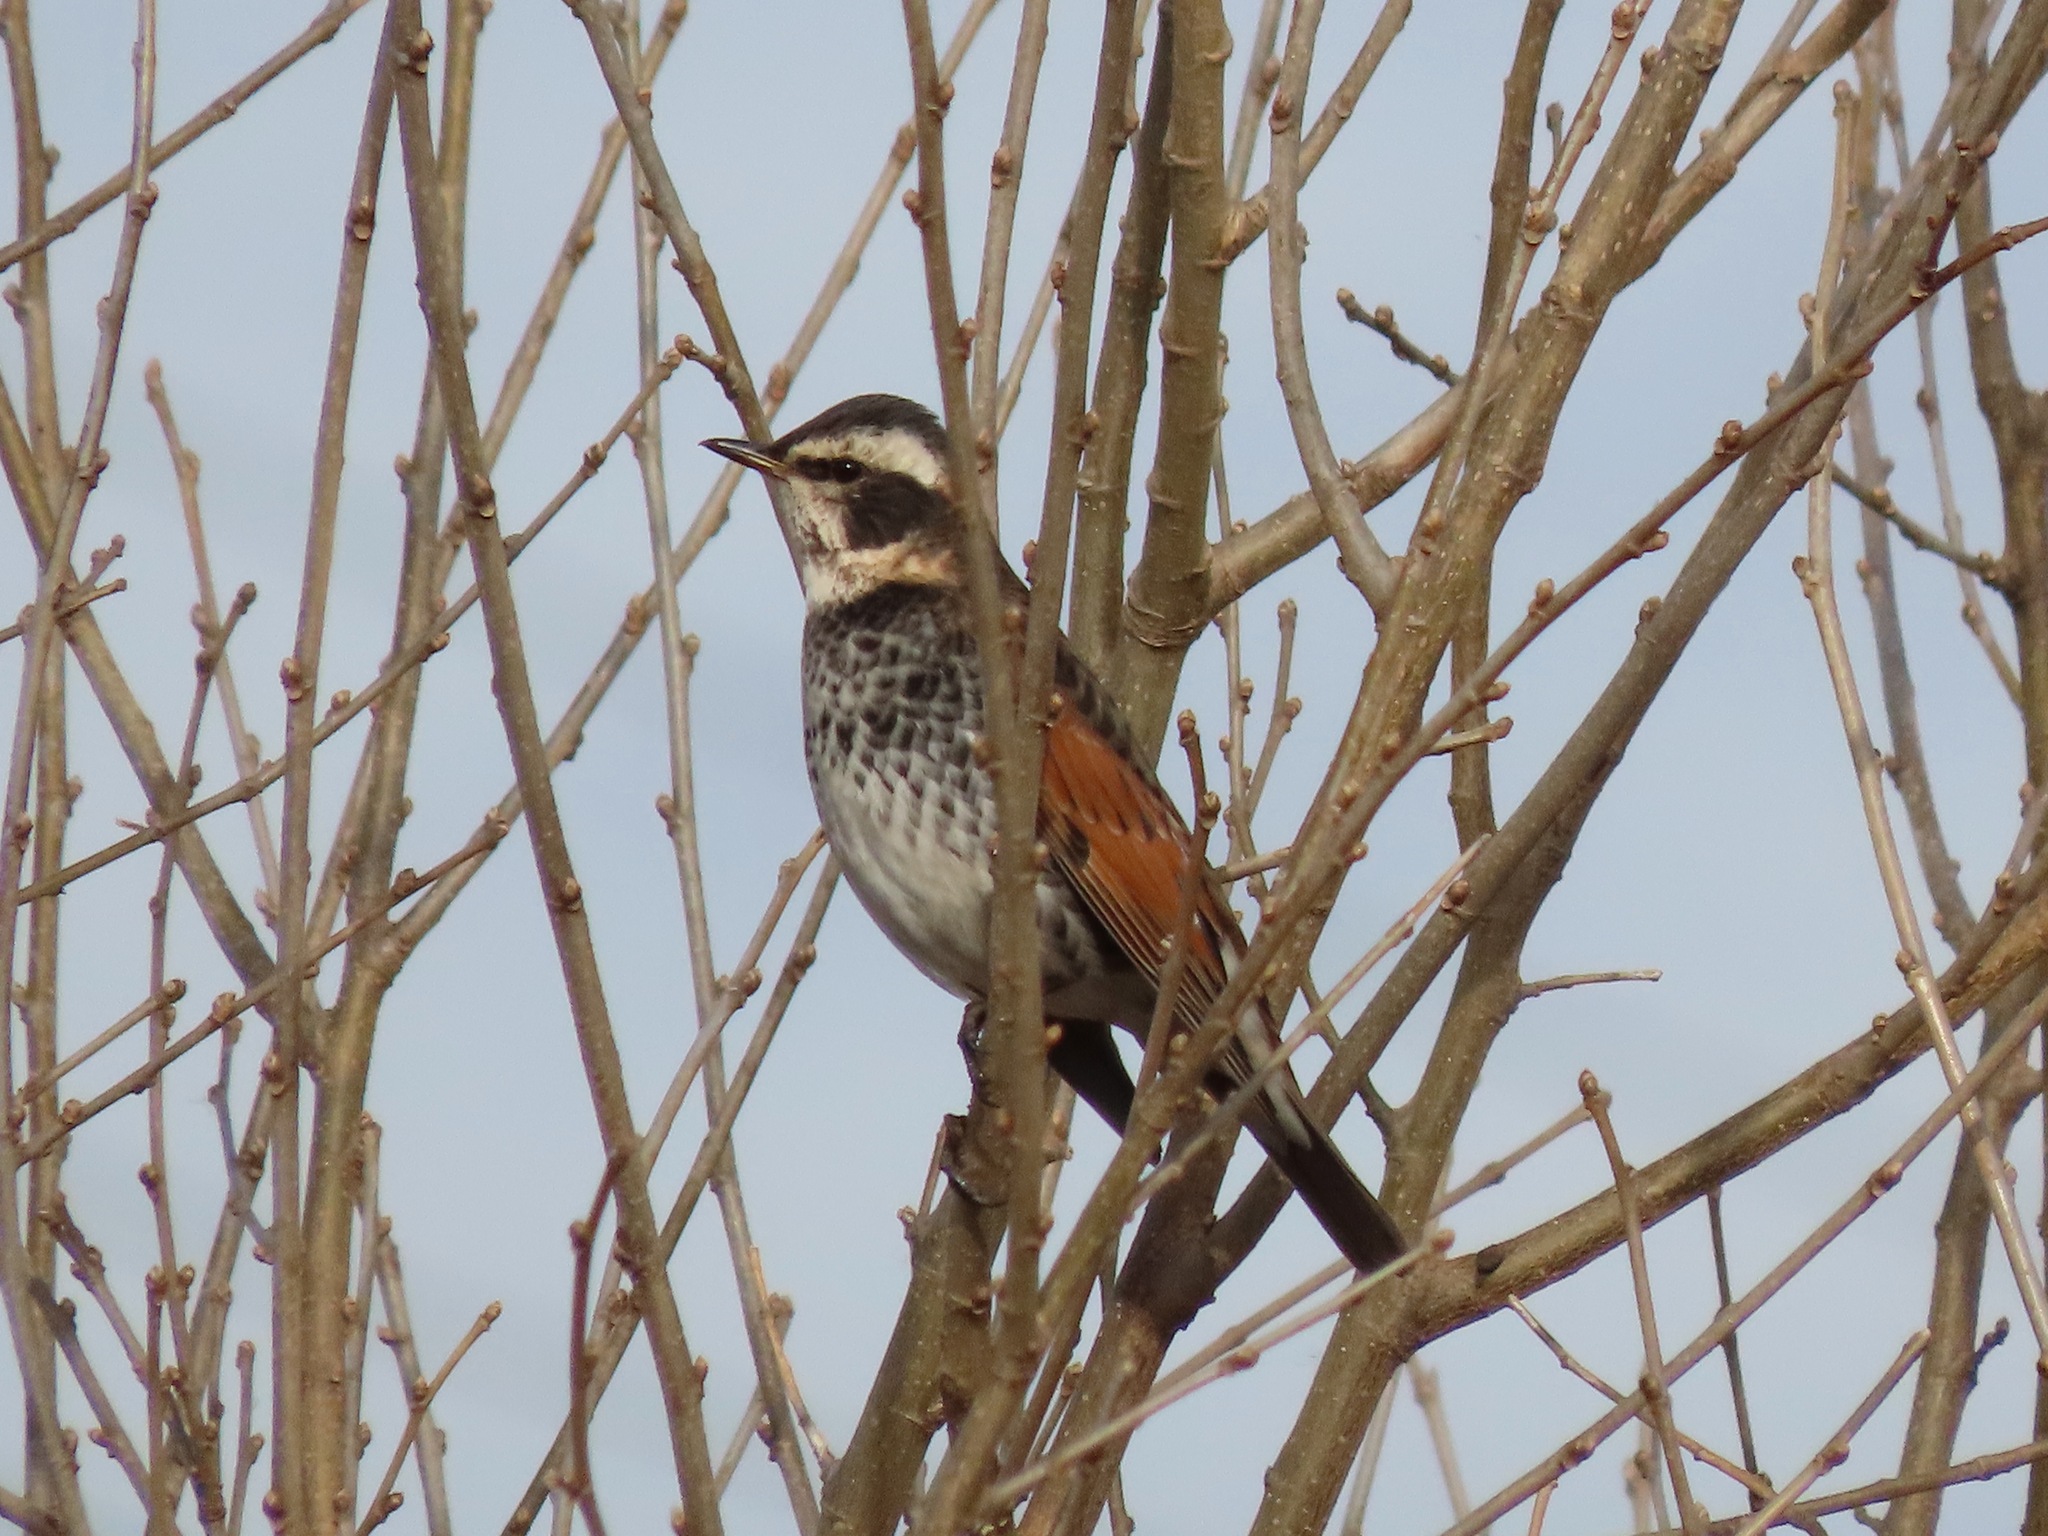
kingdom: Animalia
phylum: Chordata
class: Aves
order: Passeriformes
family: Turdidae
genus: Turdus
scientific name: Turdus eunomus
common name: Dusky thrush
